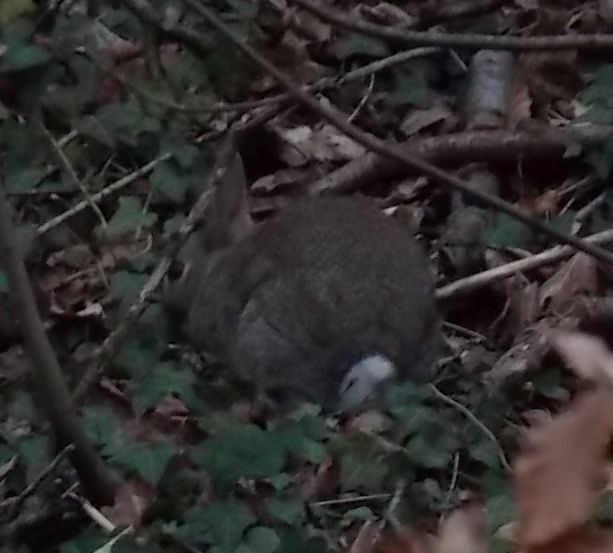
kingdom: Animalia
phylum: Chordata
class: Mammalia
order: Lagomorpha
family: Leporidae
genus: Oryctolagus
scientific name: Oryctolagus cuniculus
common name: European rabbit
